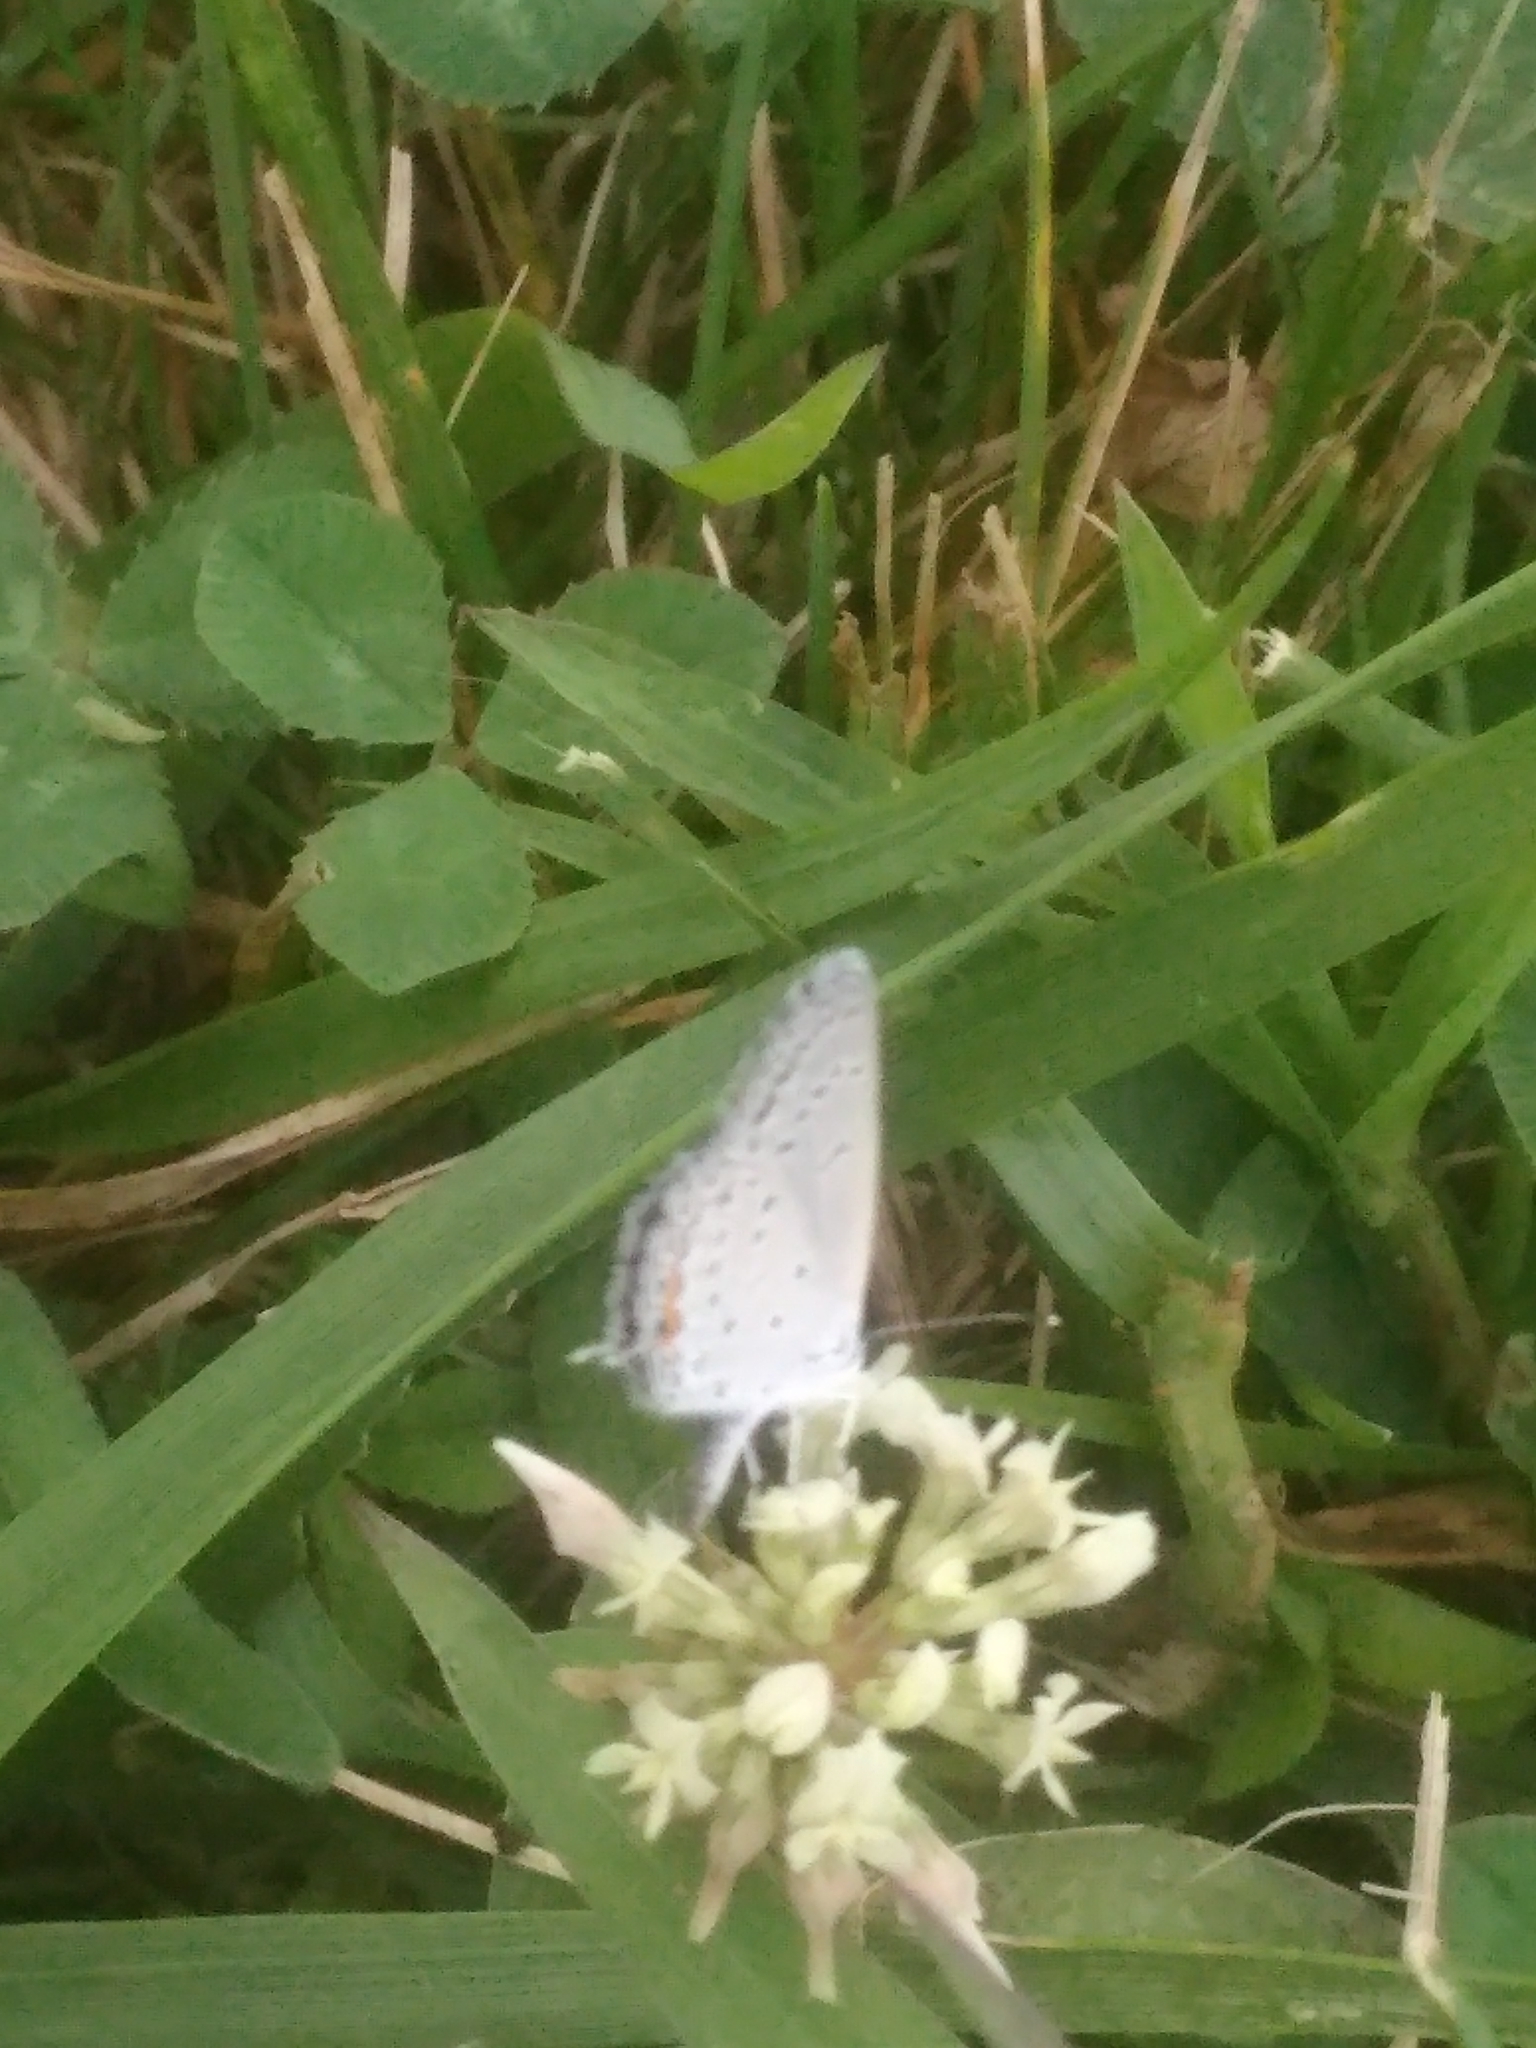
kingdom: Animalia
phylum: Arthropoda
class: Insecta
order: Lepidoptera
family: Lycaenidae
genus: Elkalyce
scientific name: Elkalyce comyntas
